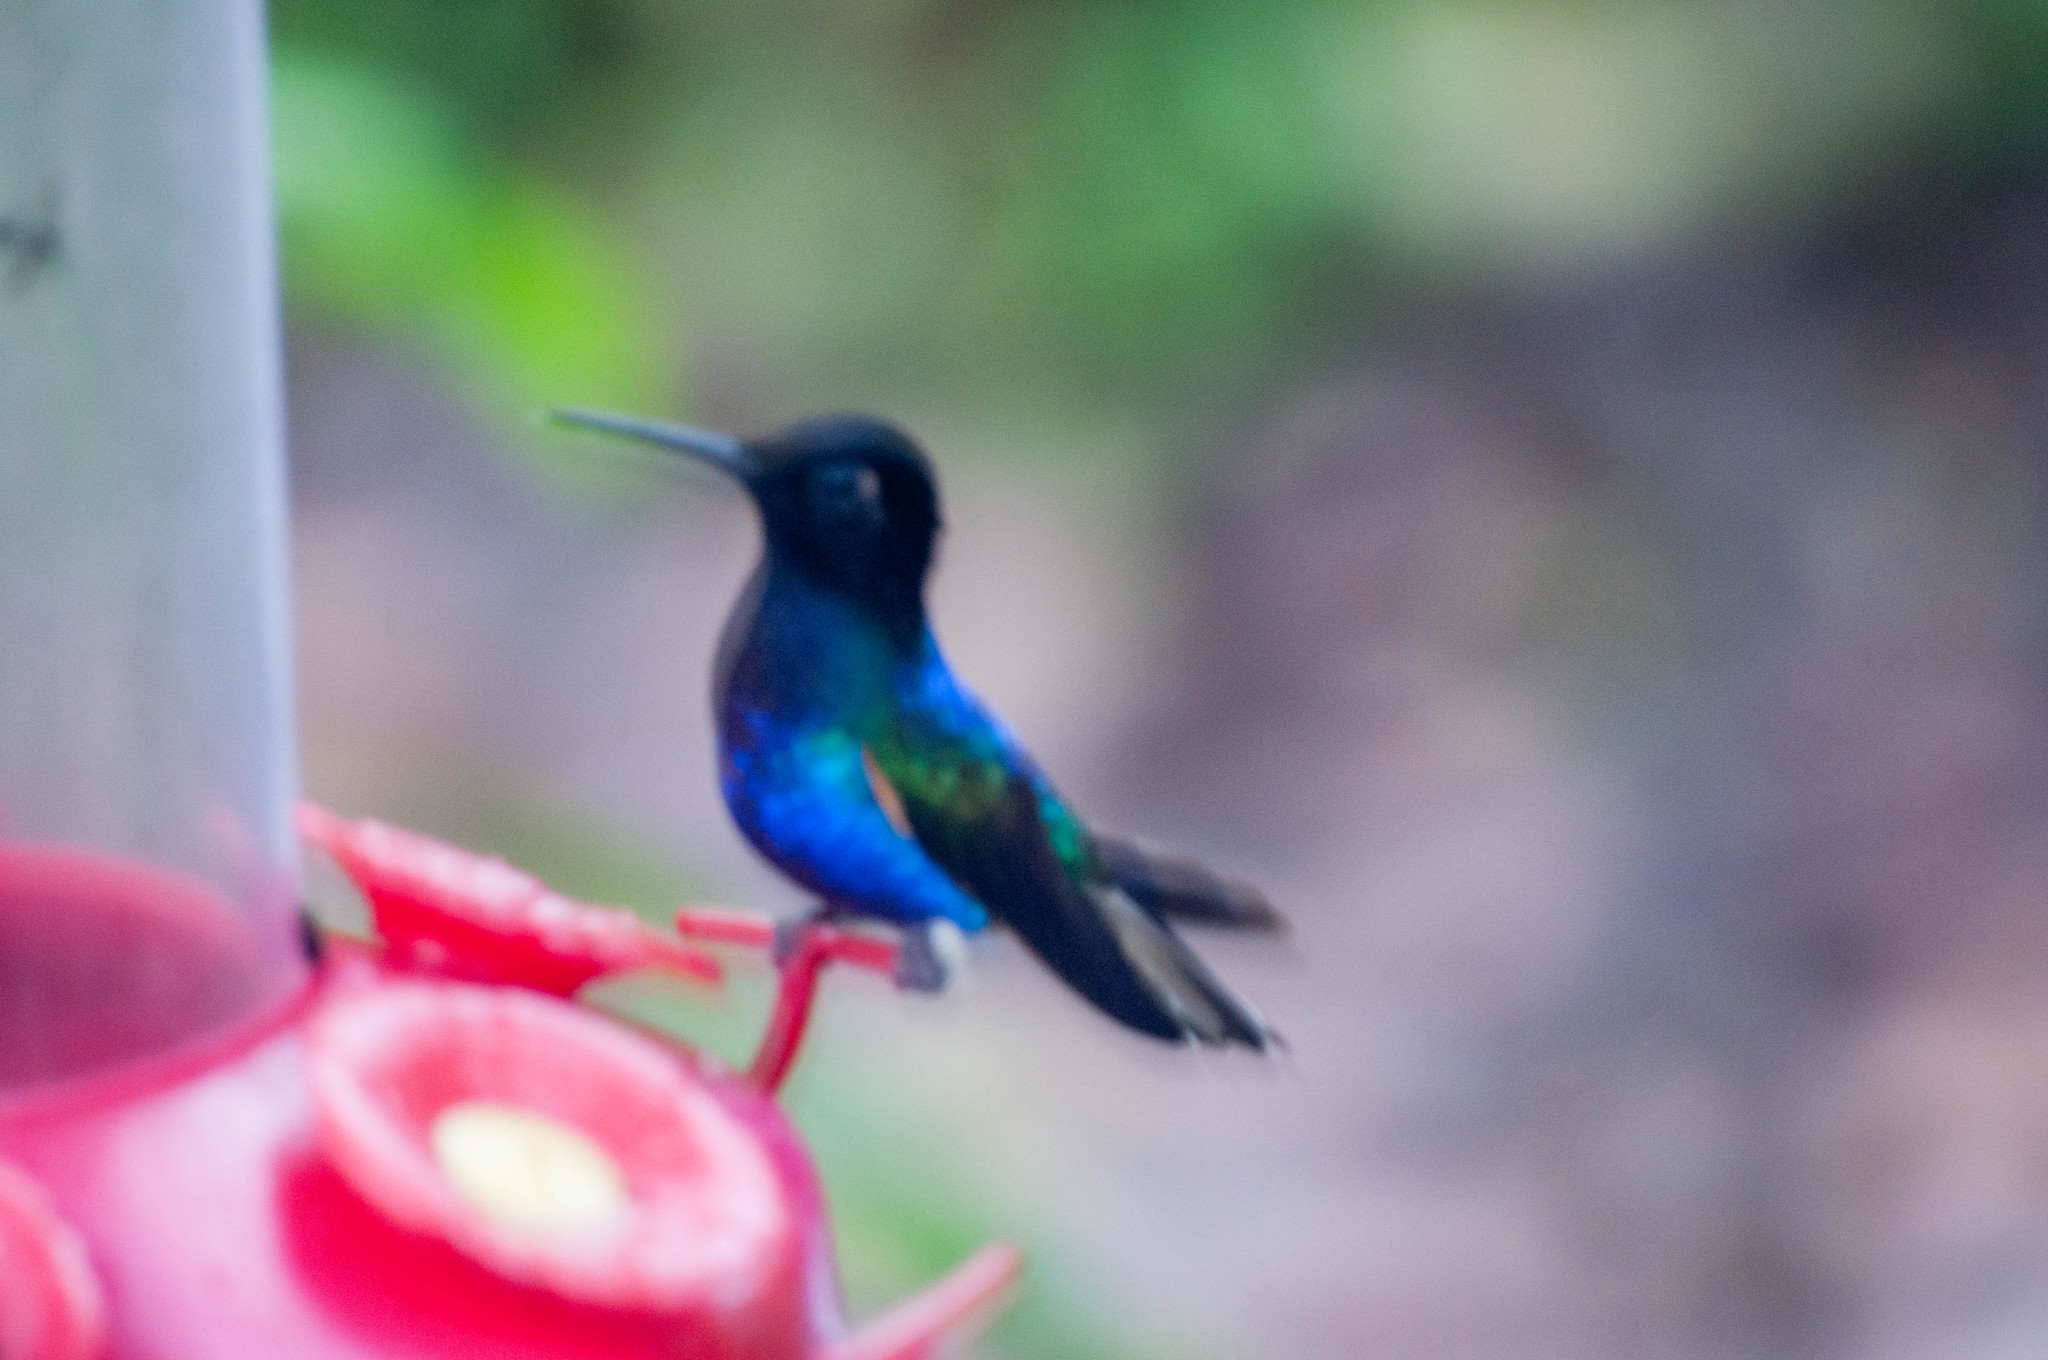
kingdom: Animalia
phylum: Chordata
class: Aves
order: Apodiformes
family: Trochilidae
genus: Boissonneaua
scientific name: Boissonneaua jardini
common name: Velvet-purple coronet
